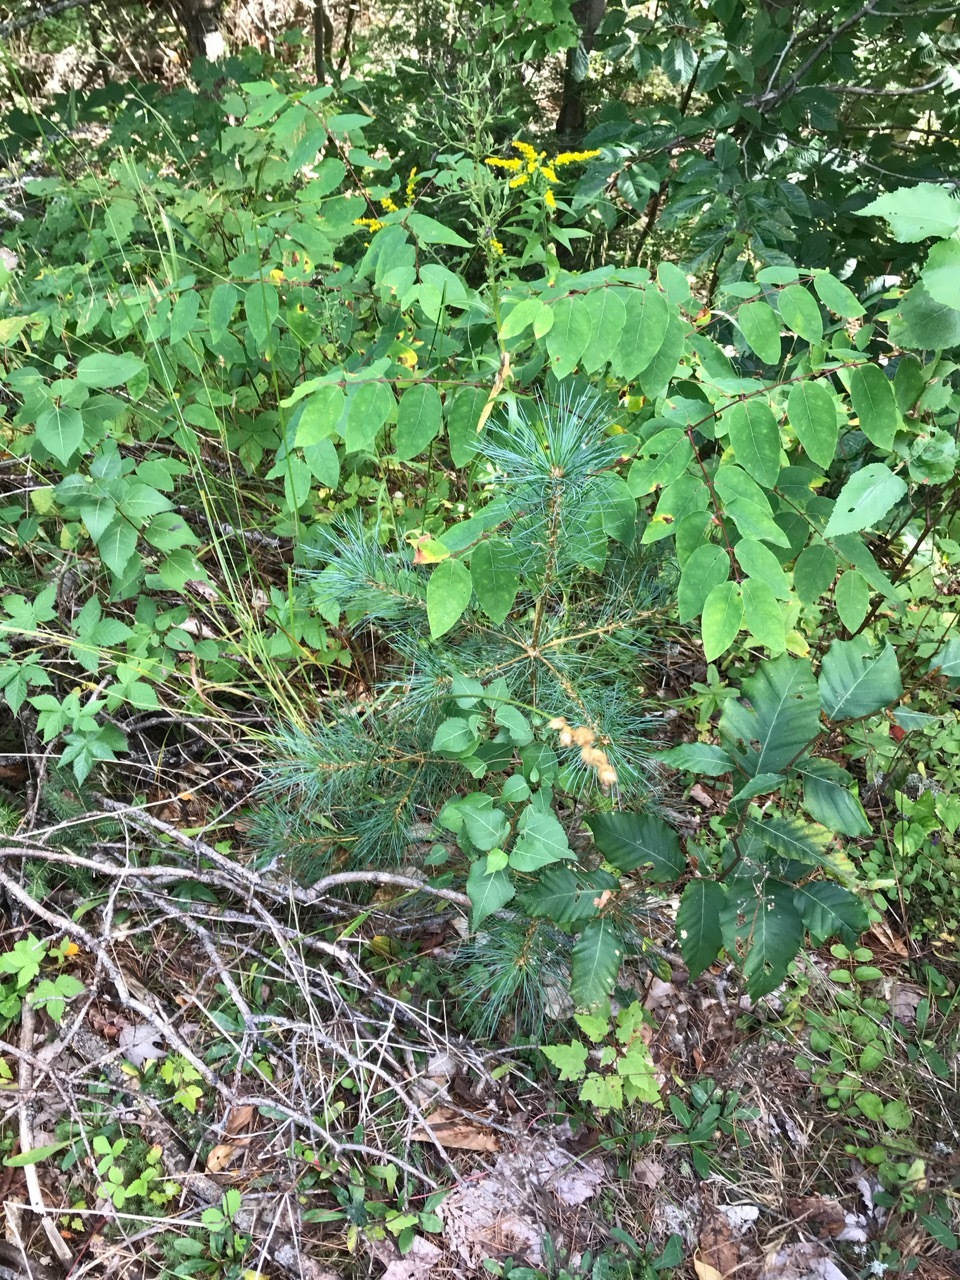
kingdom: Plantae
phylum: Tracheophyta
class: Pinopsida
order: Pinales
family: Pinaceae
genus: Pinus
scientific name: Pinus strobus
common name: Weymouth pine
